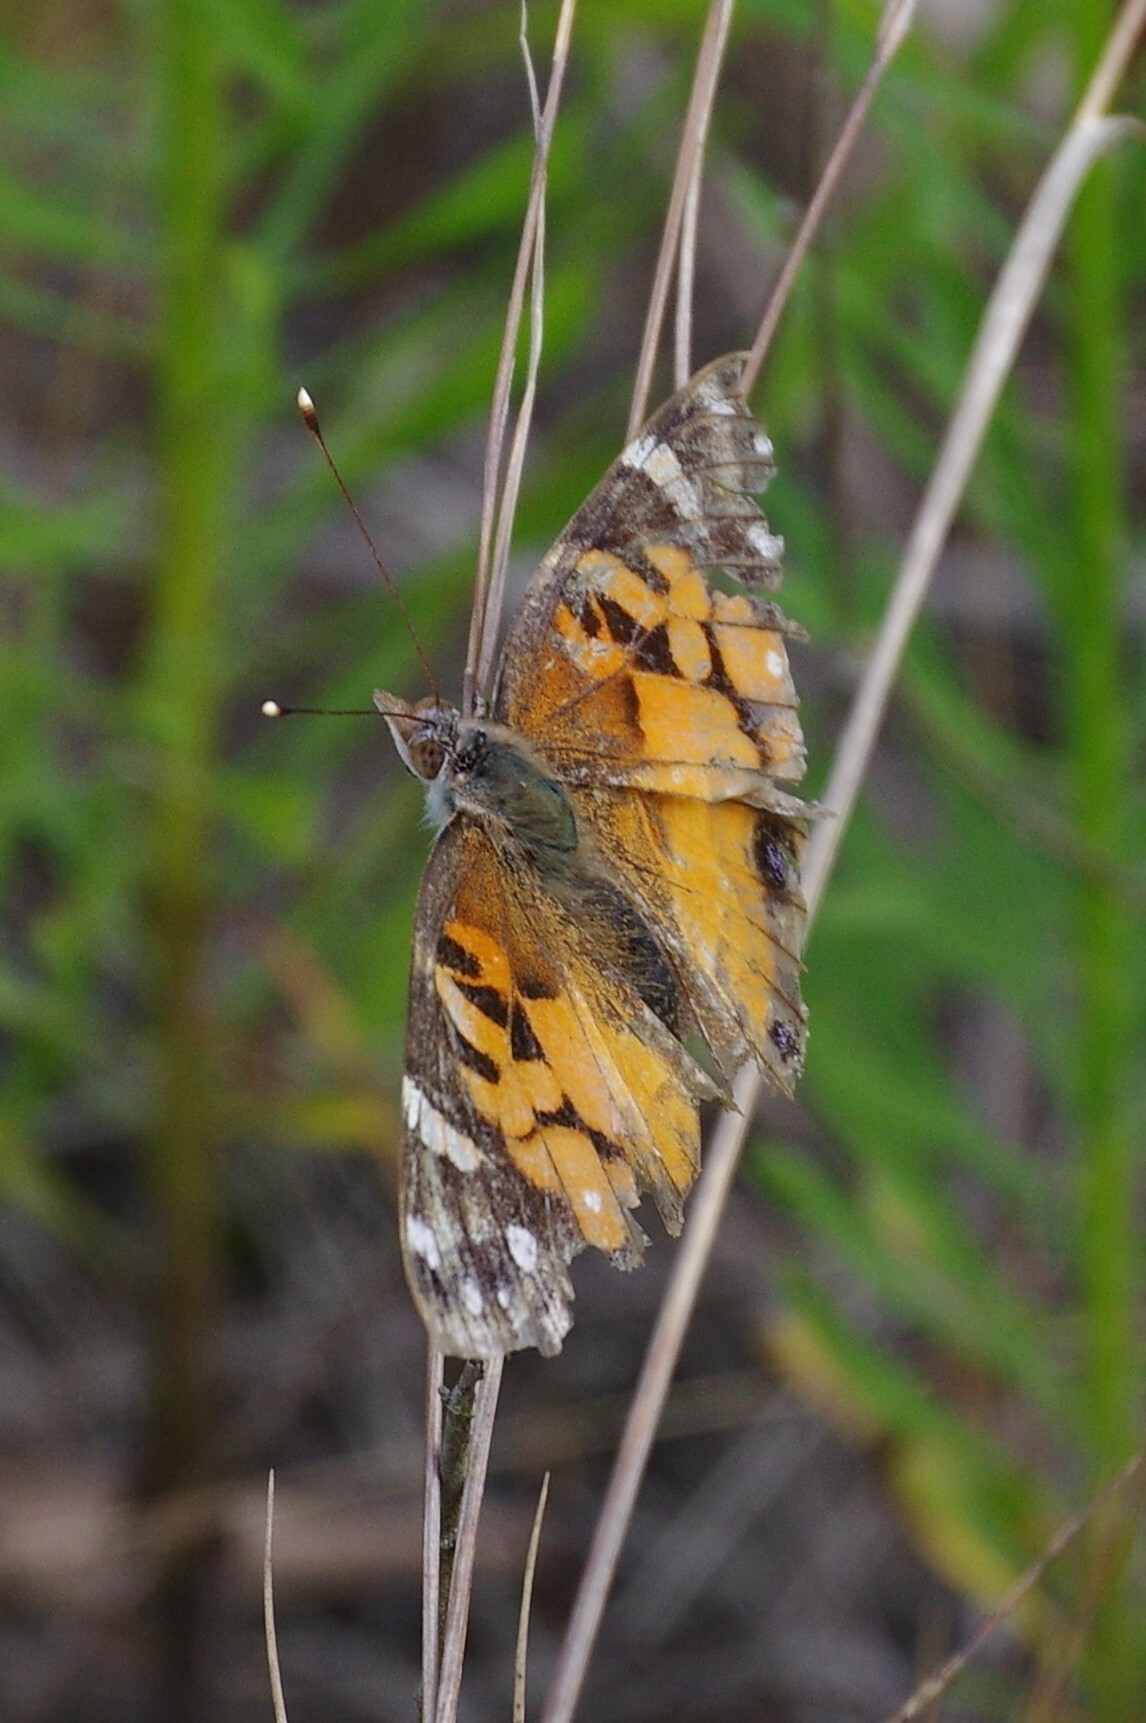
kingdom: Animalia
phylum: Arthropoda
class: Insecta
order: Lepidoptera
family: Nymphalidae
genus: Vanessa
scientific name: Vanessa virginiensis
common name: American lady
